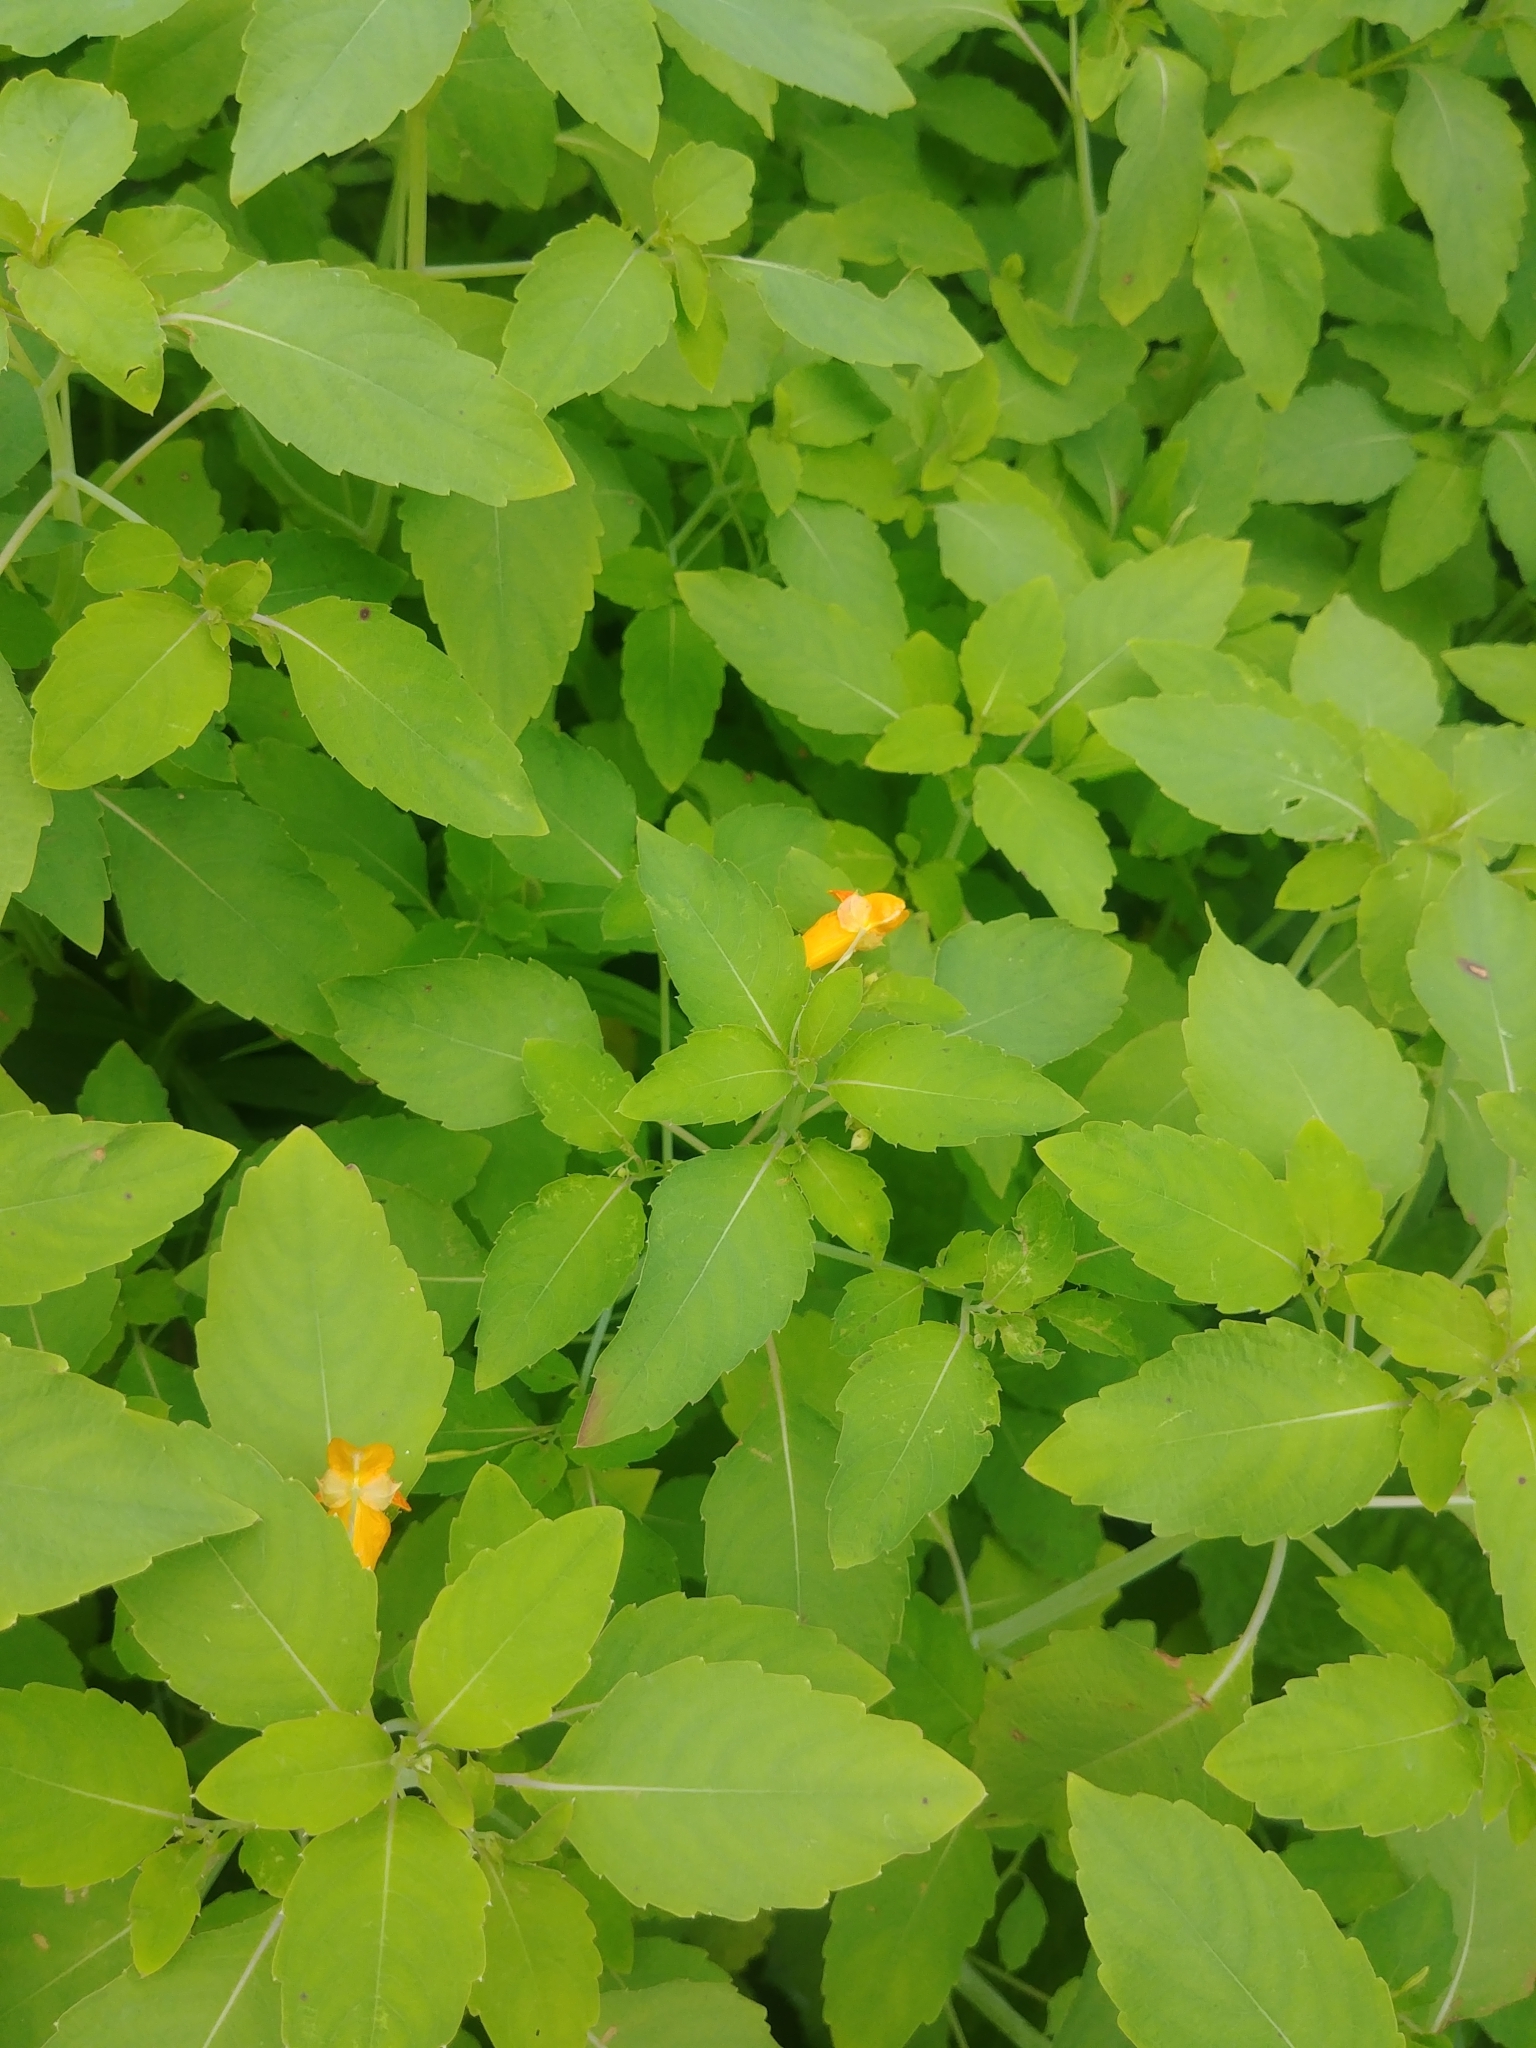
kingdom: Plantae
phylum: Tracheophyta
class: Magnoliopsida
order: Ericales
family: Balsaminaceae
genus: Impatiens
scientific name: Impatiens capensis
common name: Orange balsam
